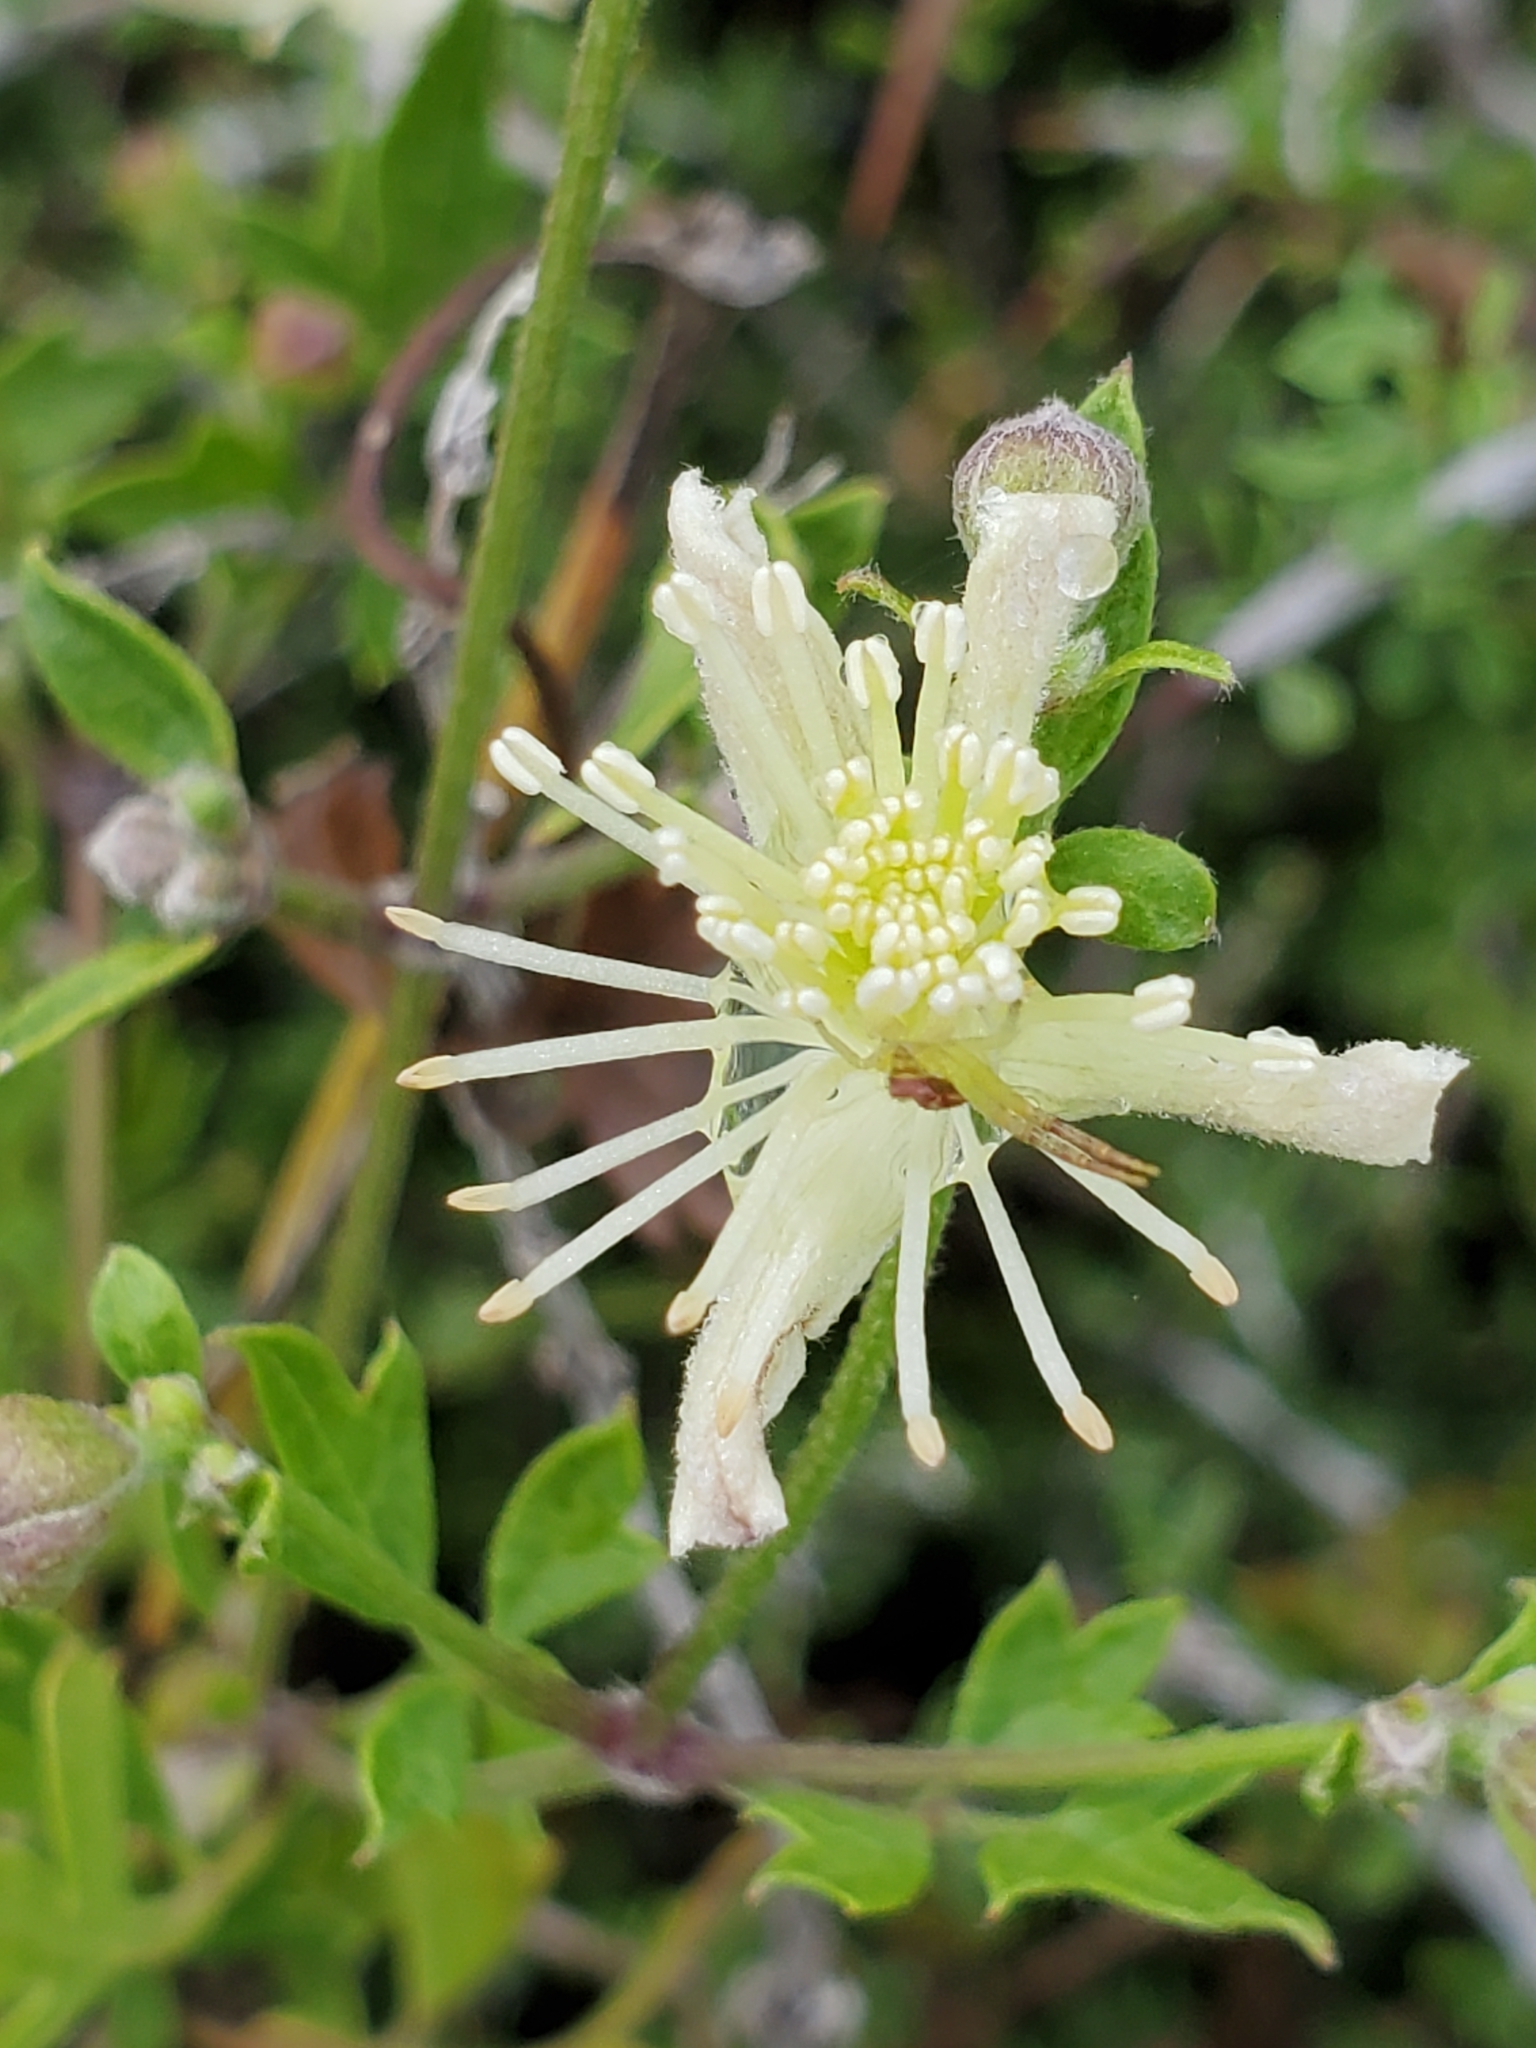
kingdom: Plantae
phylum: Tracheophyta
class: Magnoliopsida
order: Ranunculales
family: Ranunculaceae
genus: Clematis
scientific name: Clematis drummondii
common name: Texas virgin's bower
